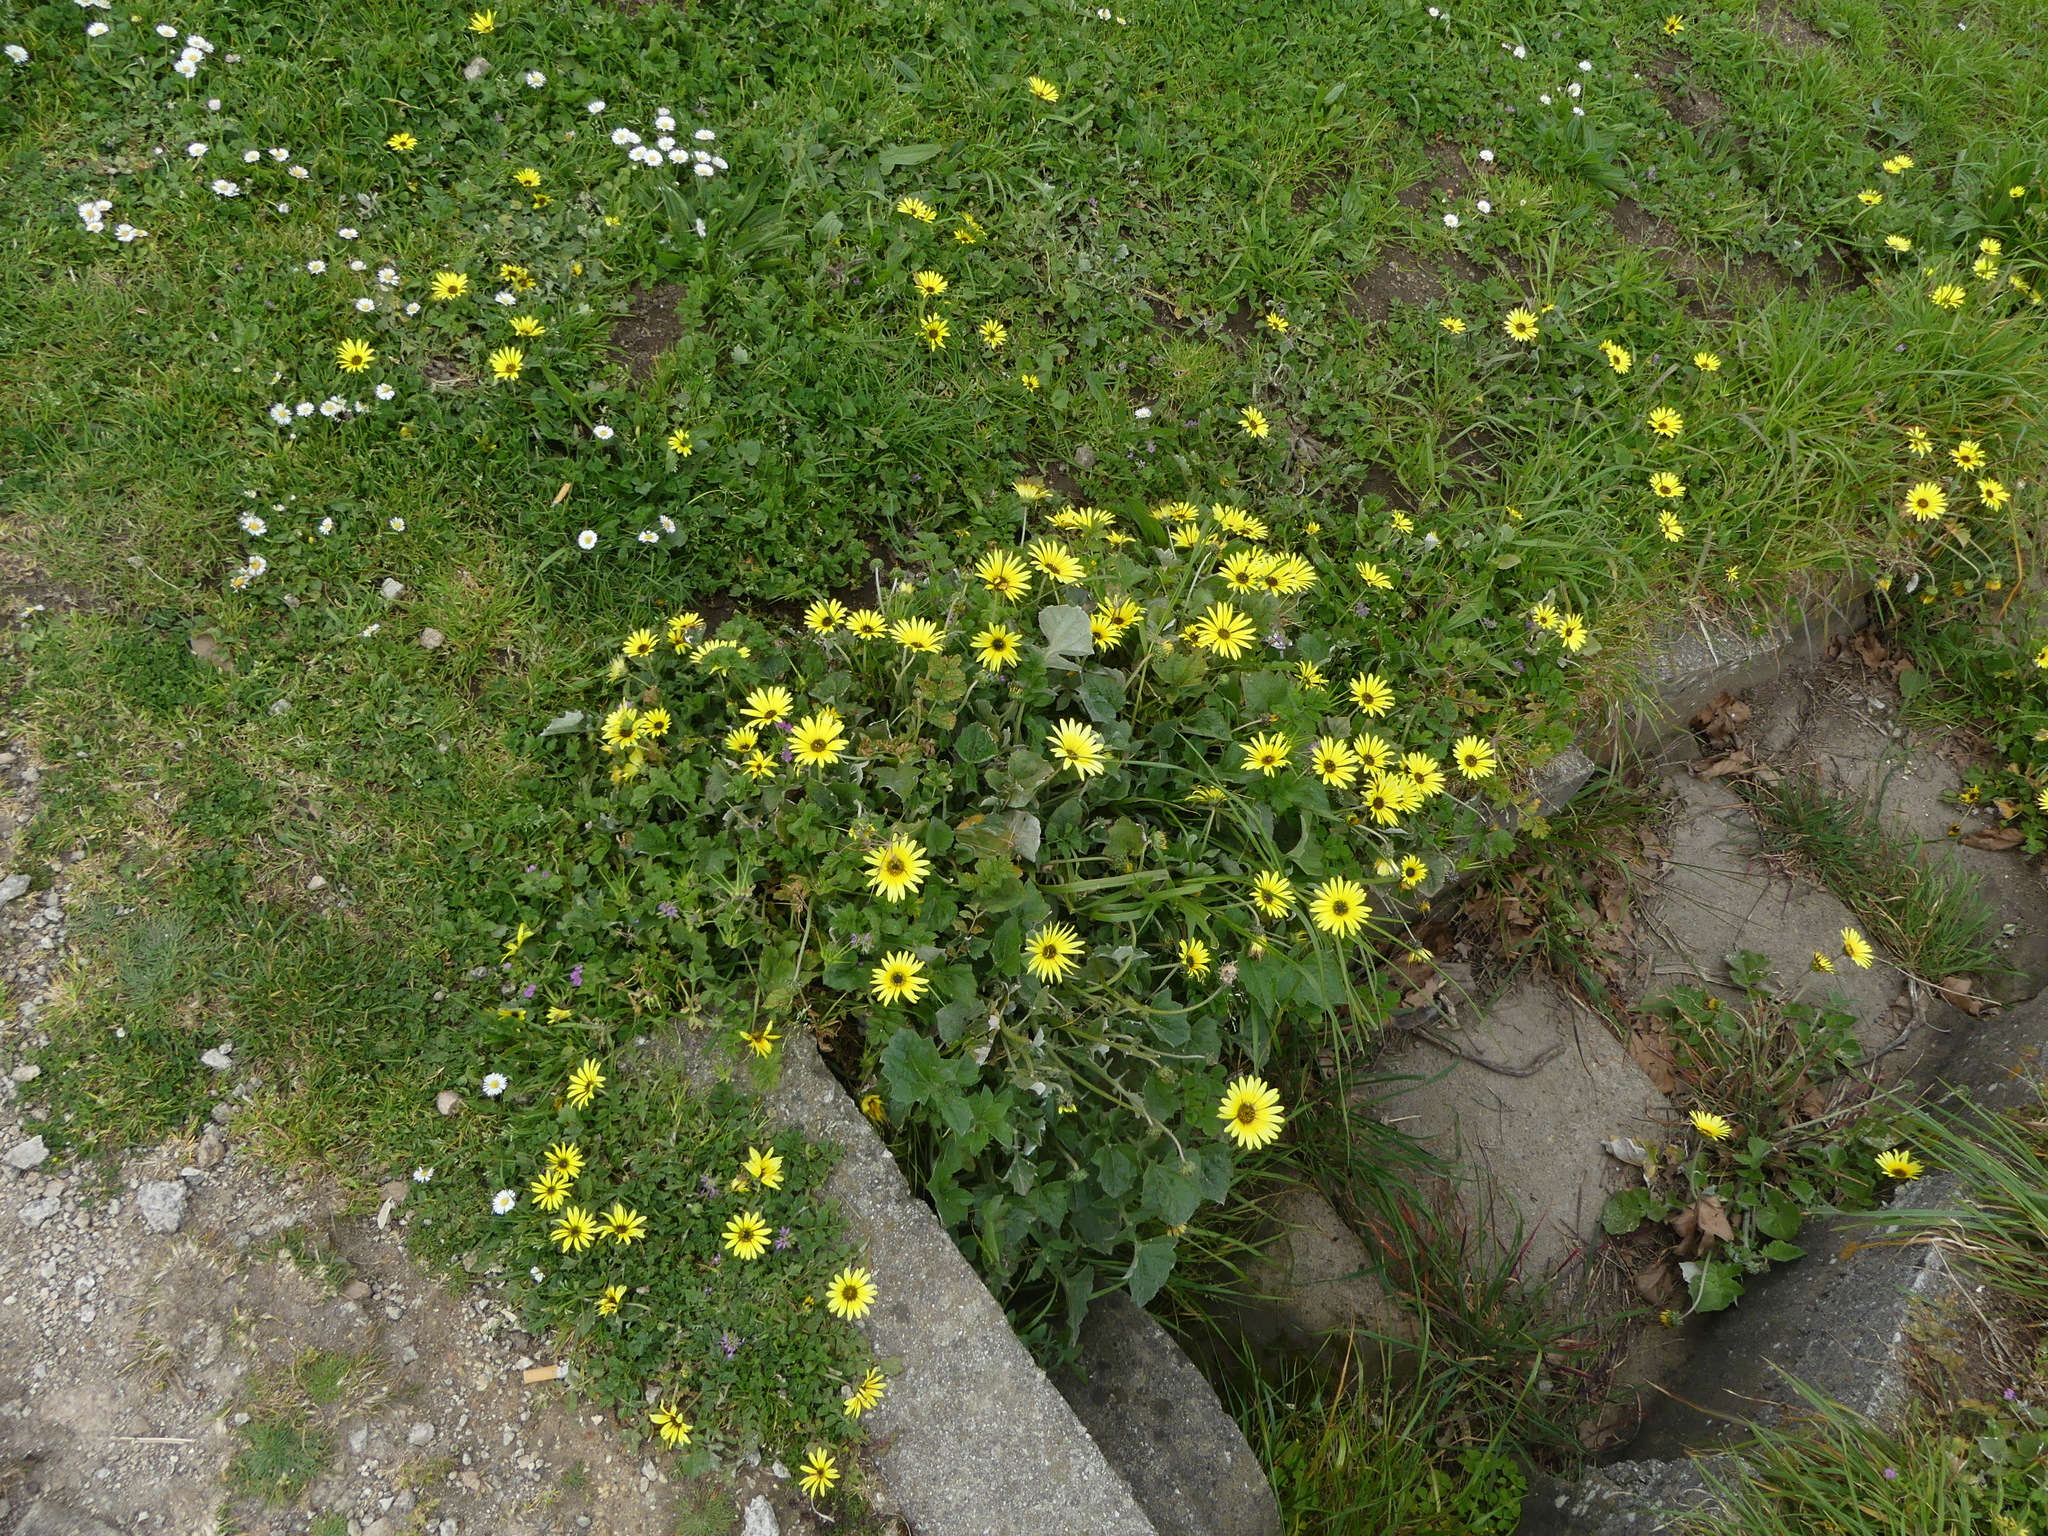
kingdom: Plantae
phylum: Tracheophyta
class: Magnoliopsida
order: Asterales
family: Asteraceae
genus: Arctotheca
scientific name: Arctotheca calendula
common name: Capeweed
